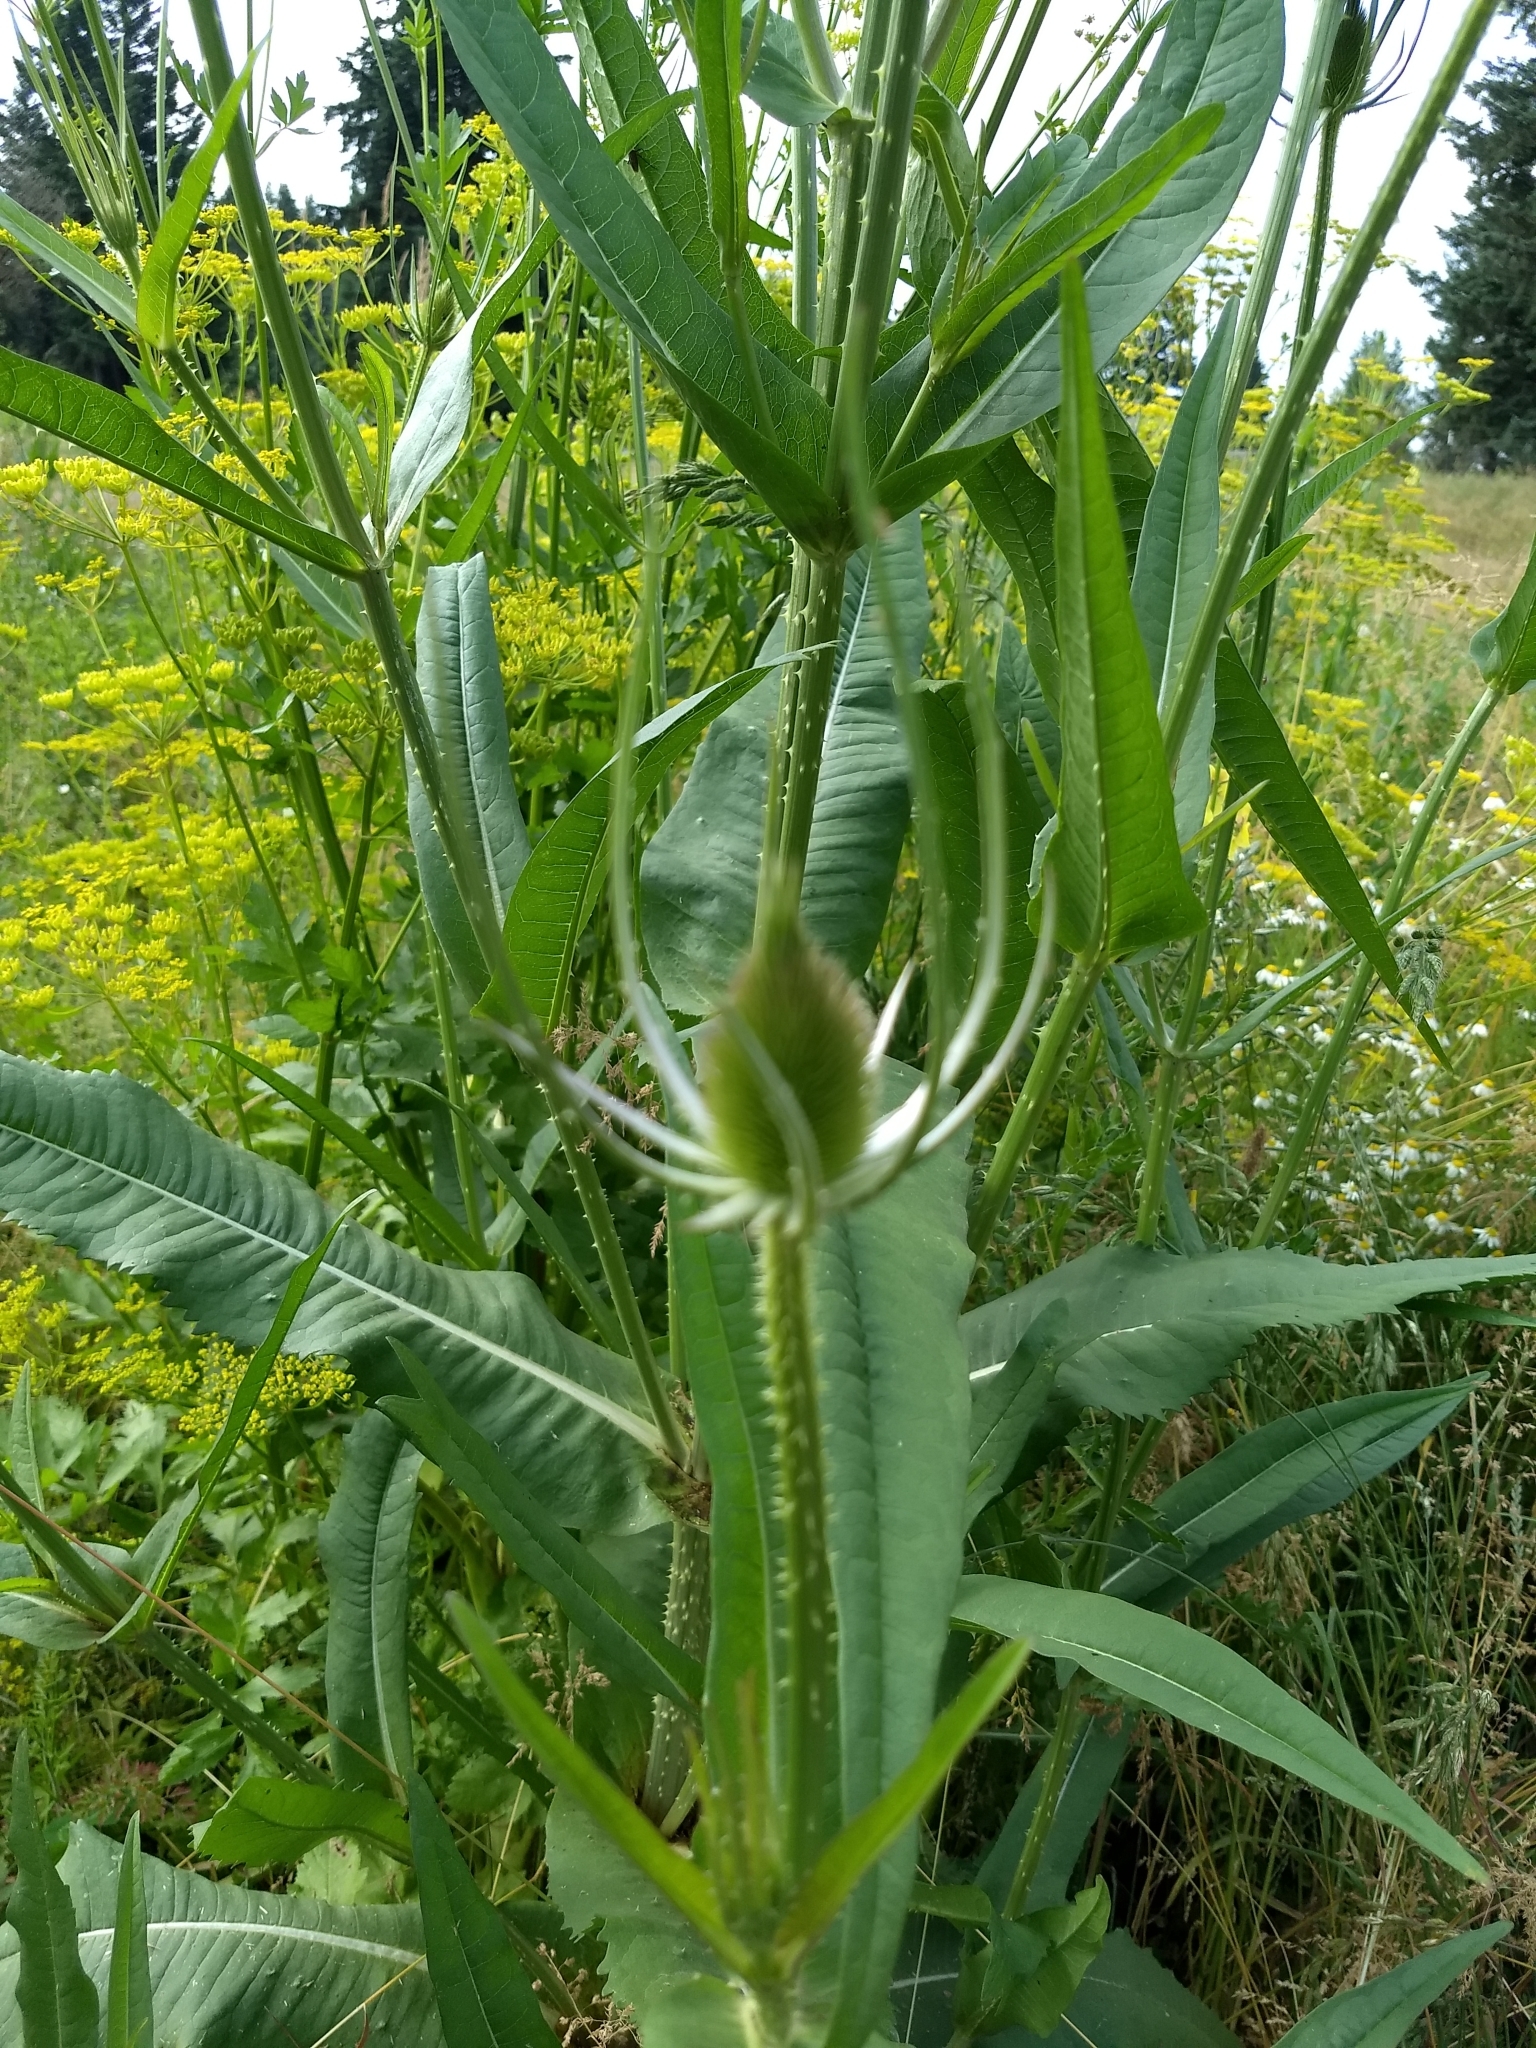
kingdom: Plantae
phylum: Tracheophyta
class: Magnoliopsida
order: Dipsacales
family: Caprifoliaceae
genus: Dipsacus
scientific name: Dipsacus fullonum
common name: Teasel
